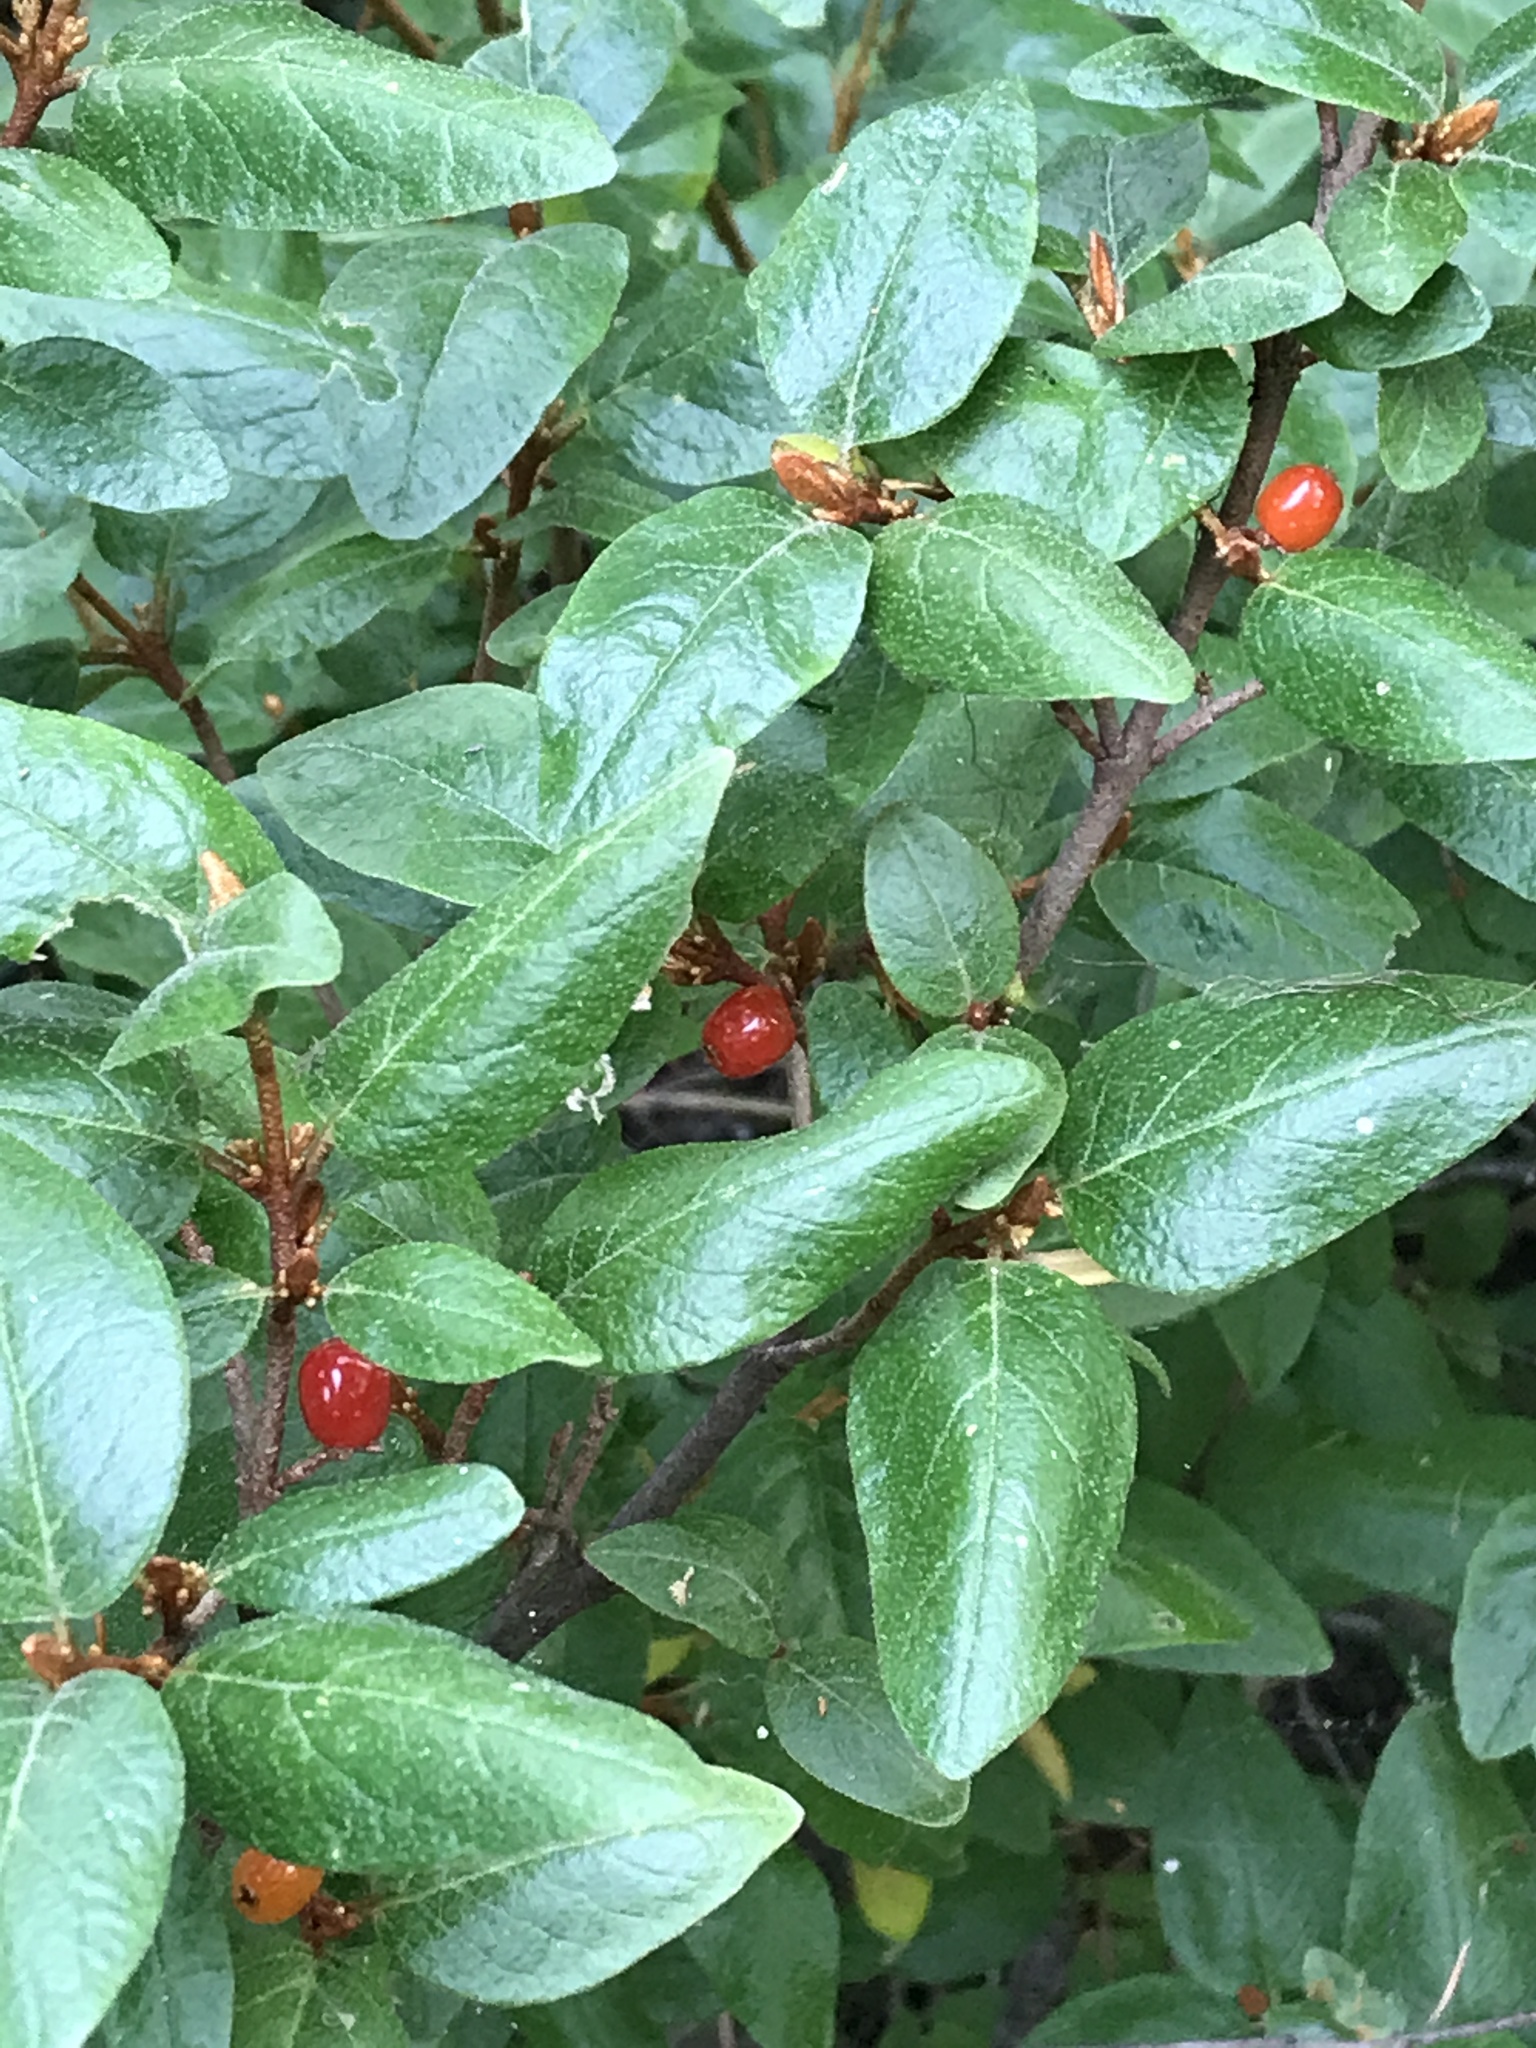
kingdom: Plantae
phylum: Tracheophyta
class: Magnoliopsida
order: Rosales
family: Elaeagnaceae
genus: Shepherdia
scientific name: Shepherdia canadensis
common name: Soapberry
